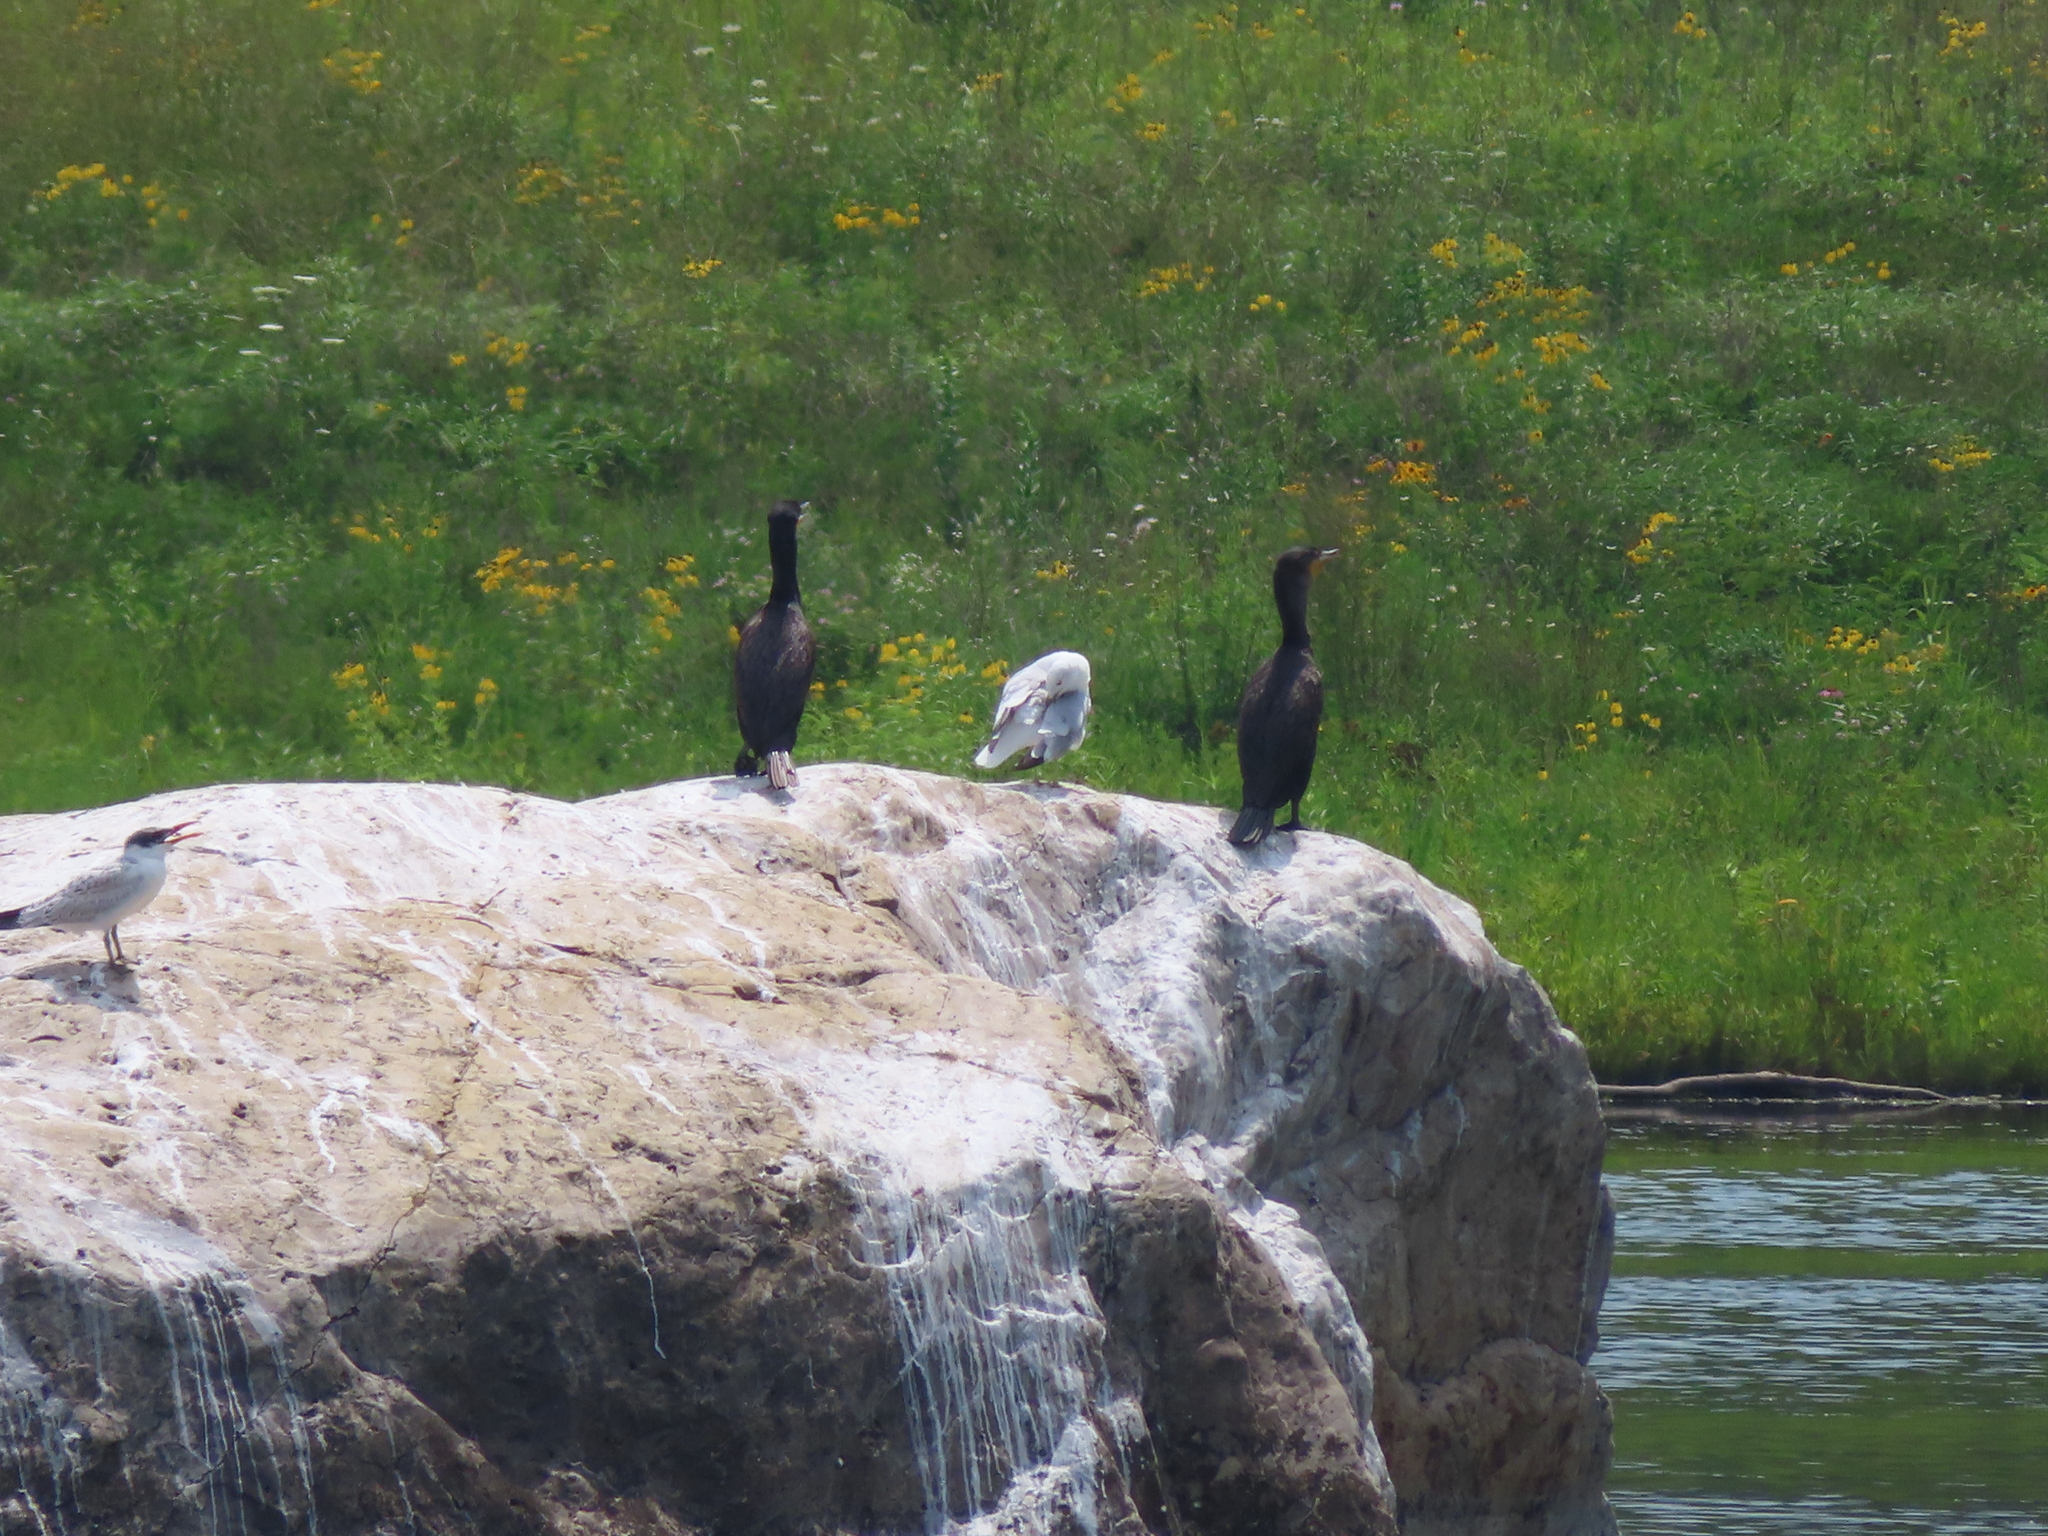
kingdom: Animalia
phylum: Chordata
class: Aves
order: Suliformes
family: Phalacrocoracidae
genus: Phalacrocorax
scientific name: Phalacrocorax auritus
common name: Double-crested cormorant
